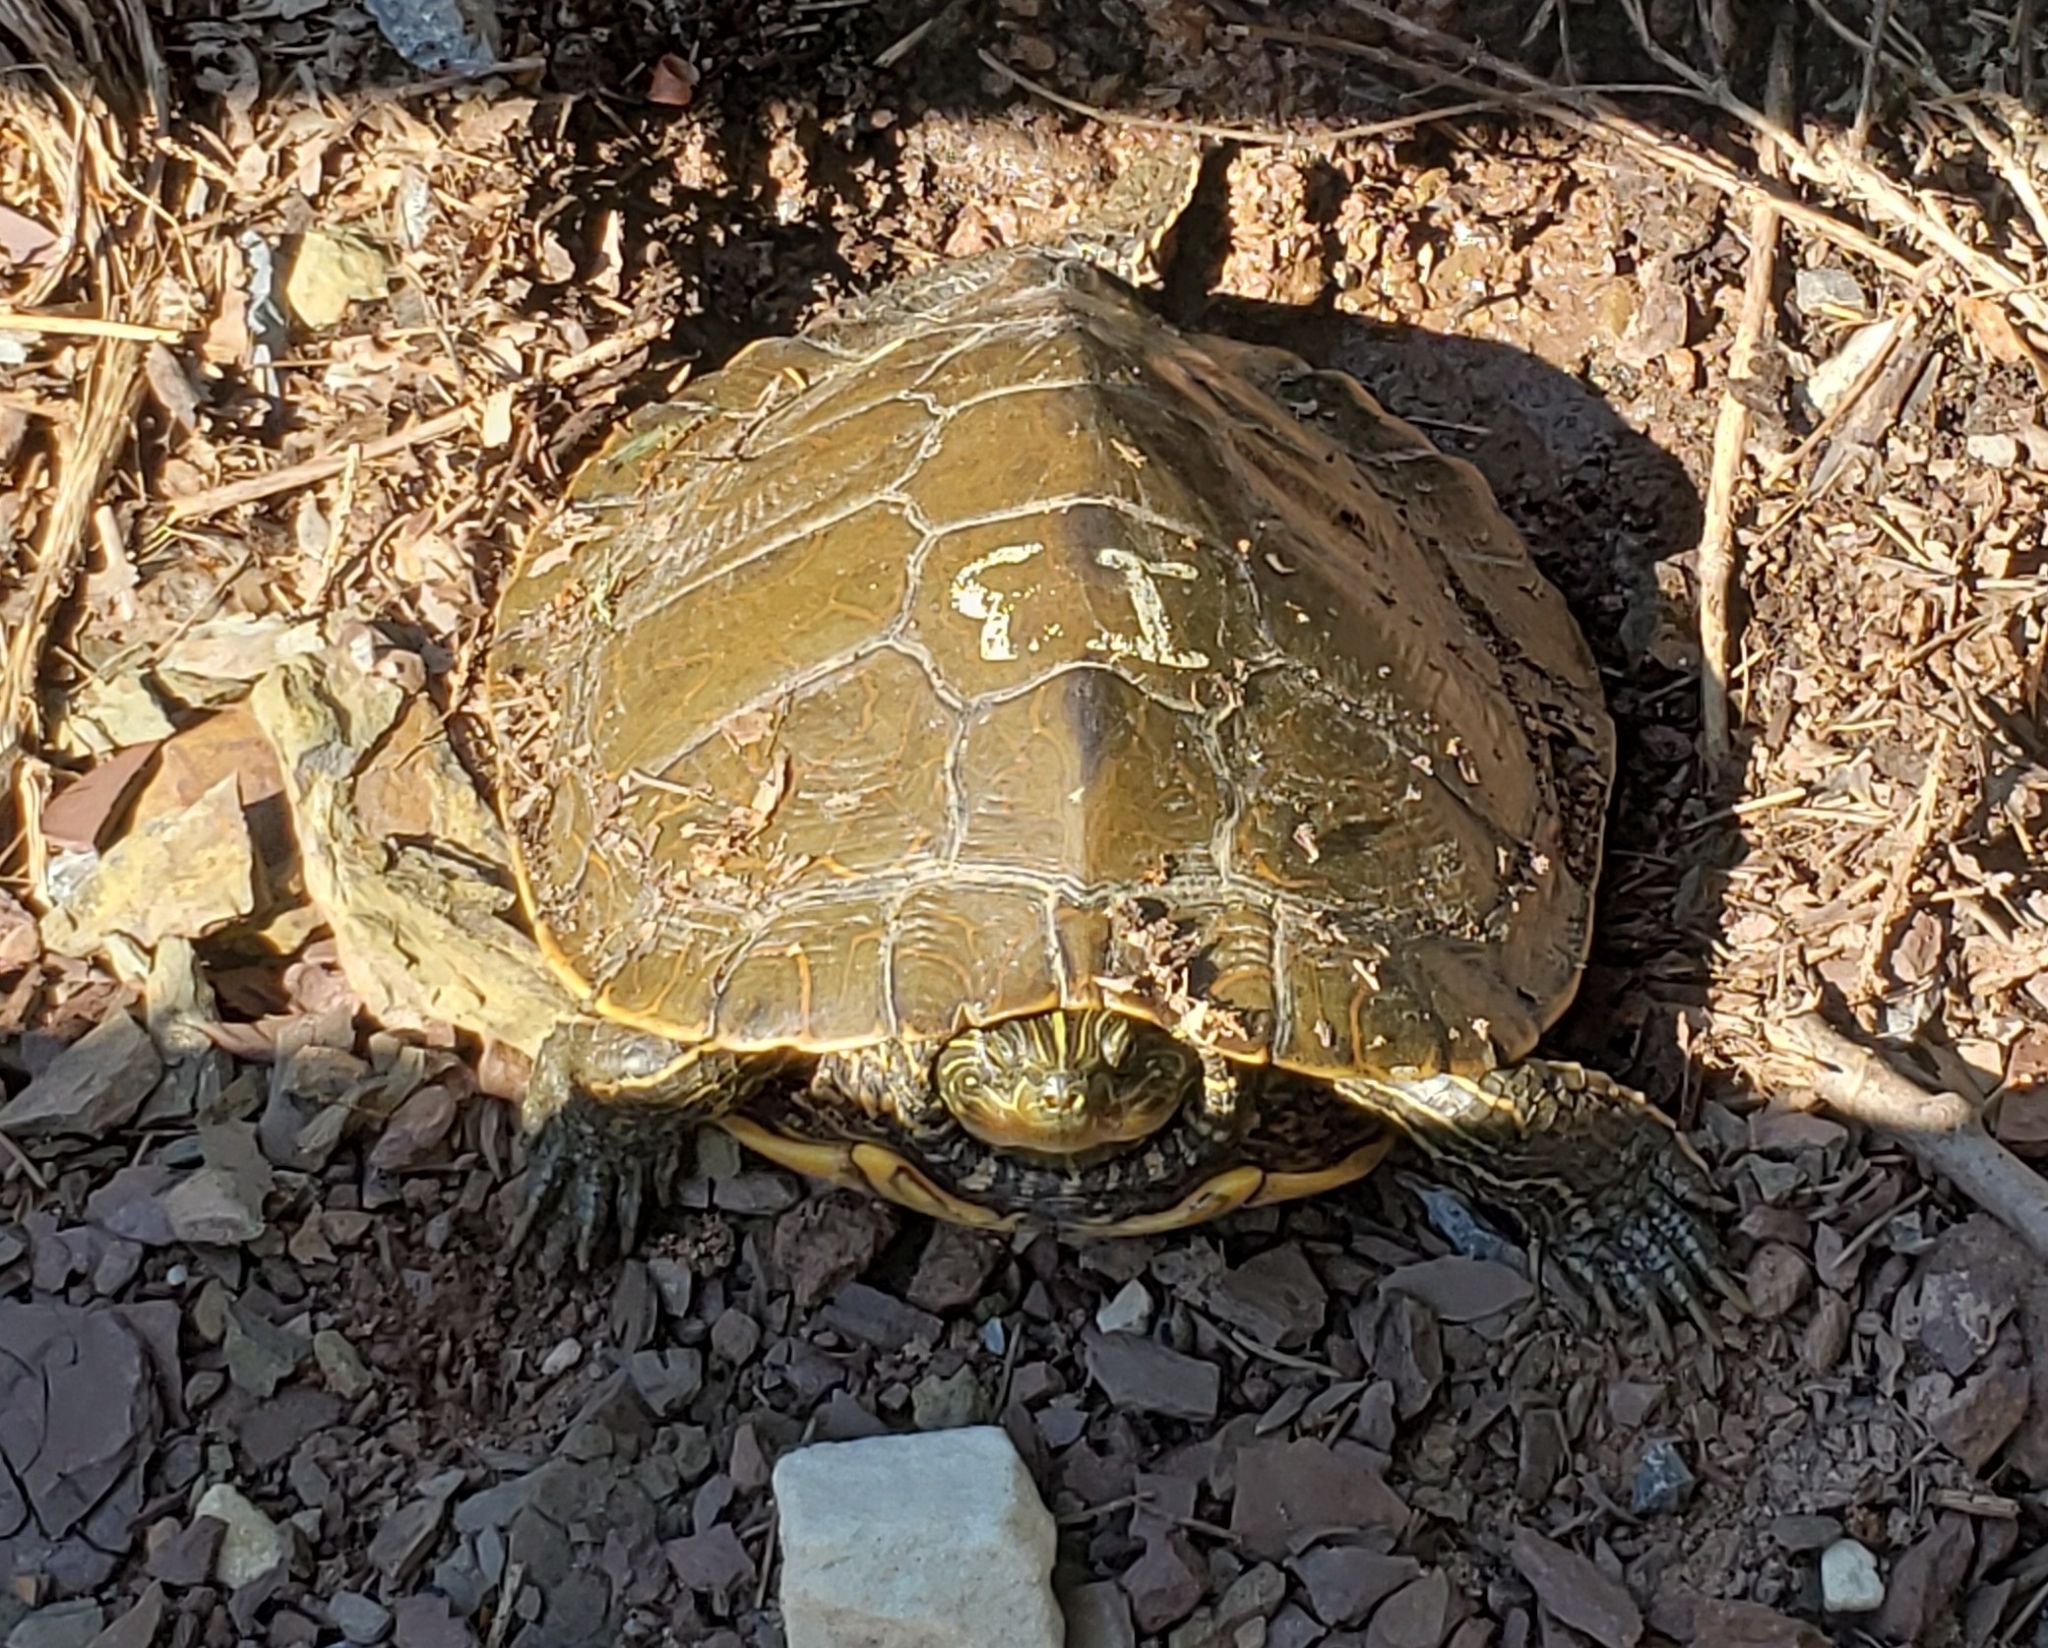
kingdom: Animalia
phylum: Chordata
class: Testudines
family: Emydidae
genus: Graptemys
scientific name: Graptemys geographica
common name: Common map turtle
